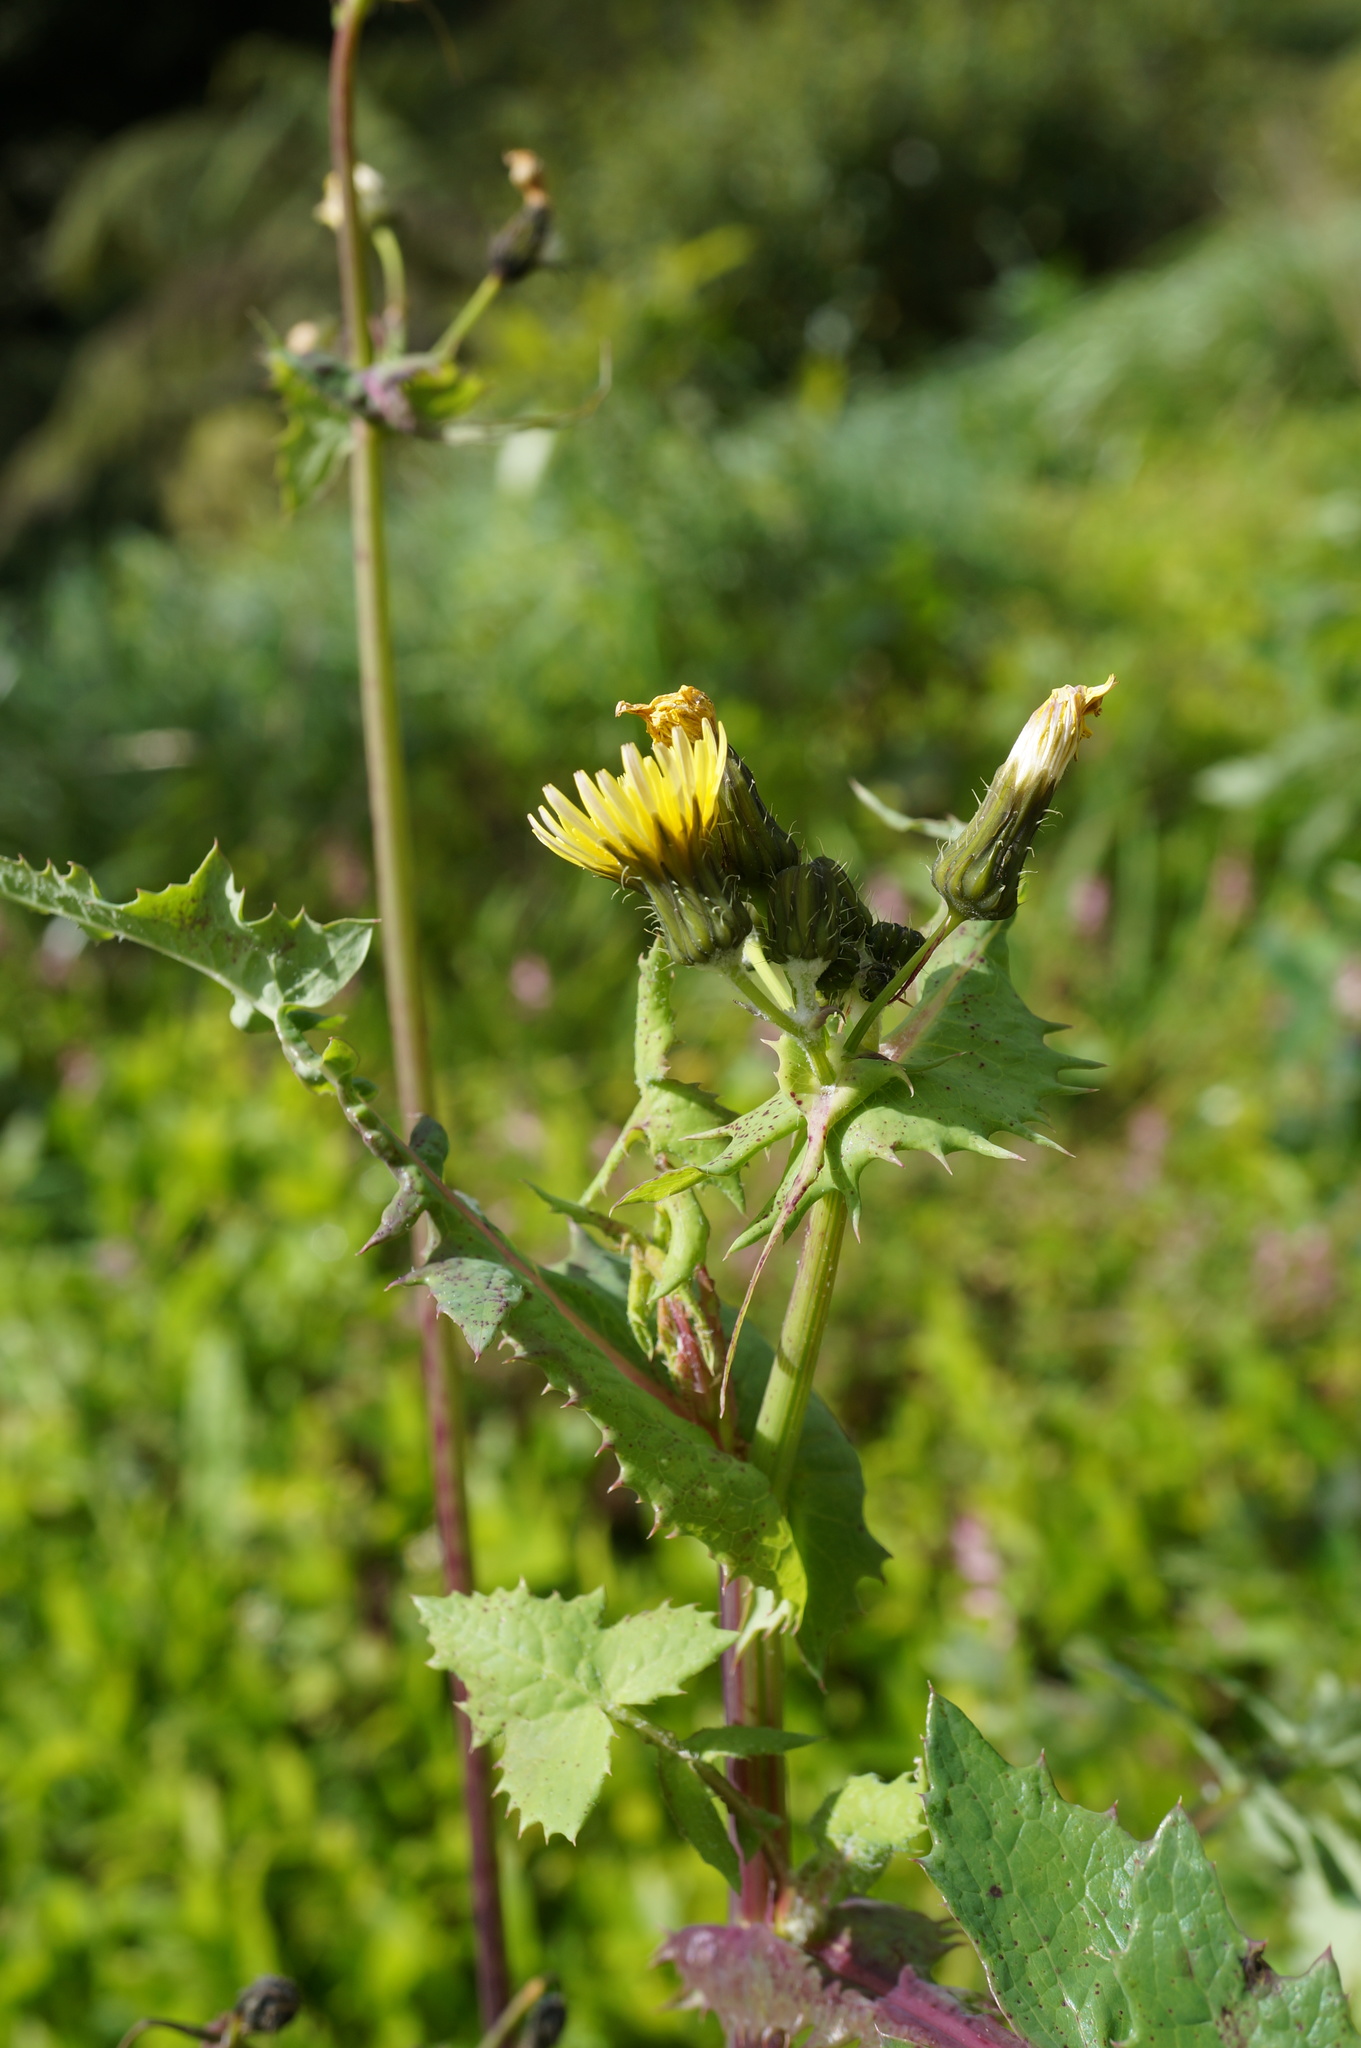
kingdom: Plantae
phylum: Tracheophyta
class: Magnoliopsida
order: Asterales
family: Asteraceae
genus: Sonchus
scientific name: Sonchus oleraceus
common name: Common sowthistle
